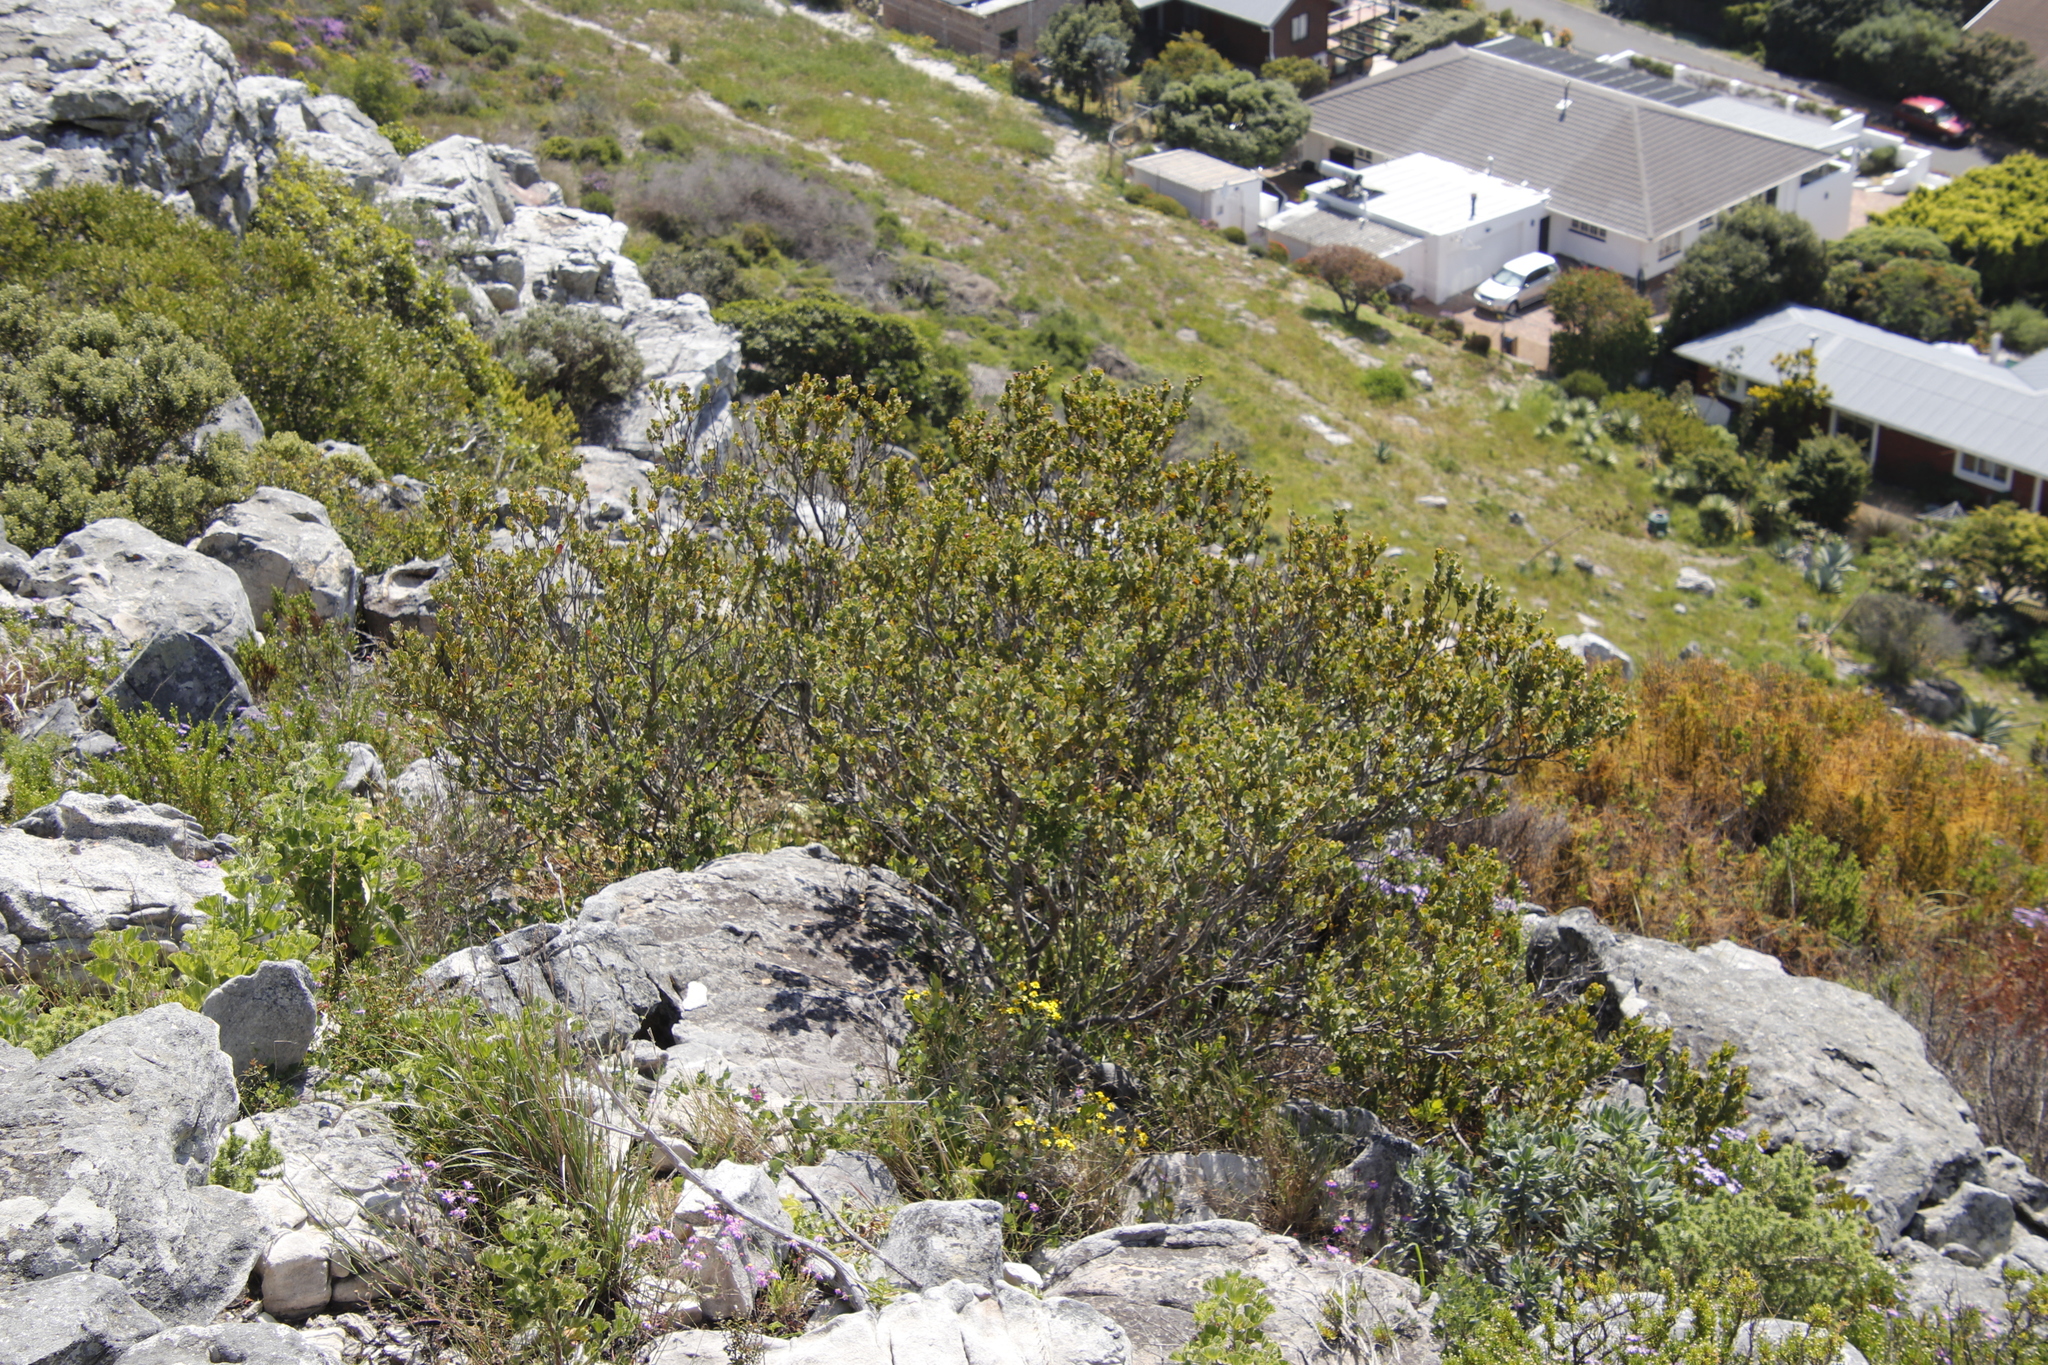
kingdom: Plantae
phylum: Tracheophyta
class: Magnoliopsida
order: Santalales
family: Santalaceae
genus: Osyris
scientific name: Osyris compressa
